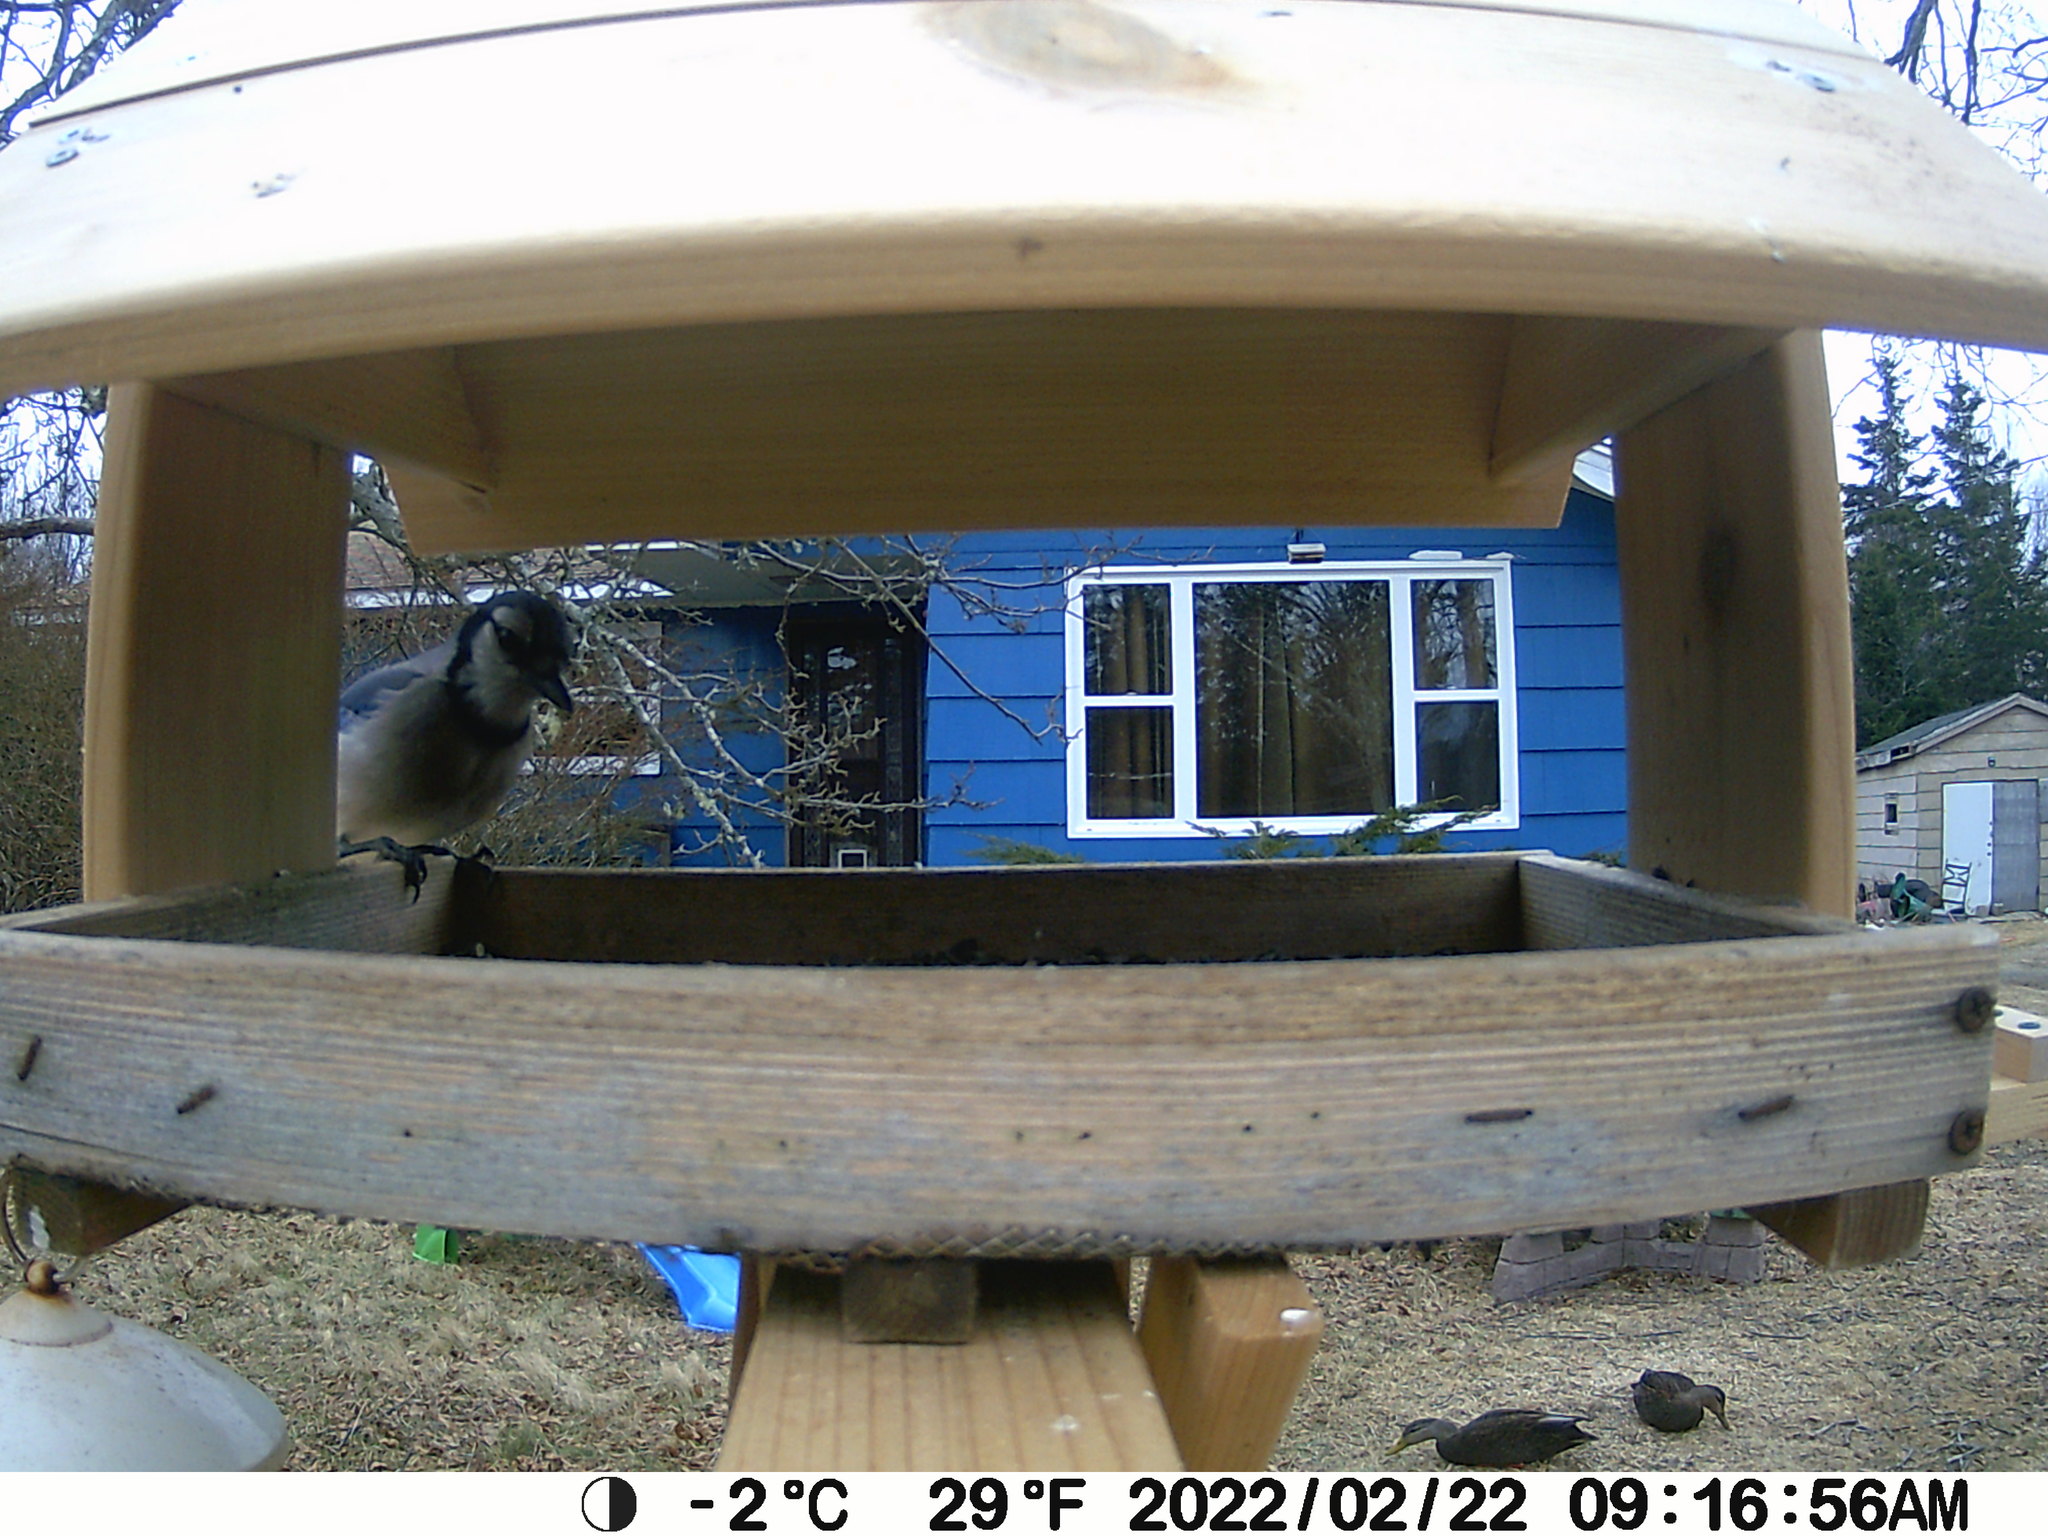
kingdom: Animalia
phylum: Chordata
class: Aves
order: Passeriformes
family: Corvidae
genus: Cyanocitta
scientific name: Cyanocitta cristata
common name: Blue jay
